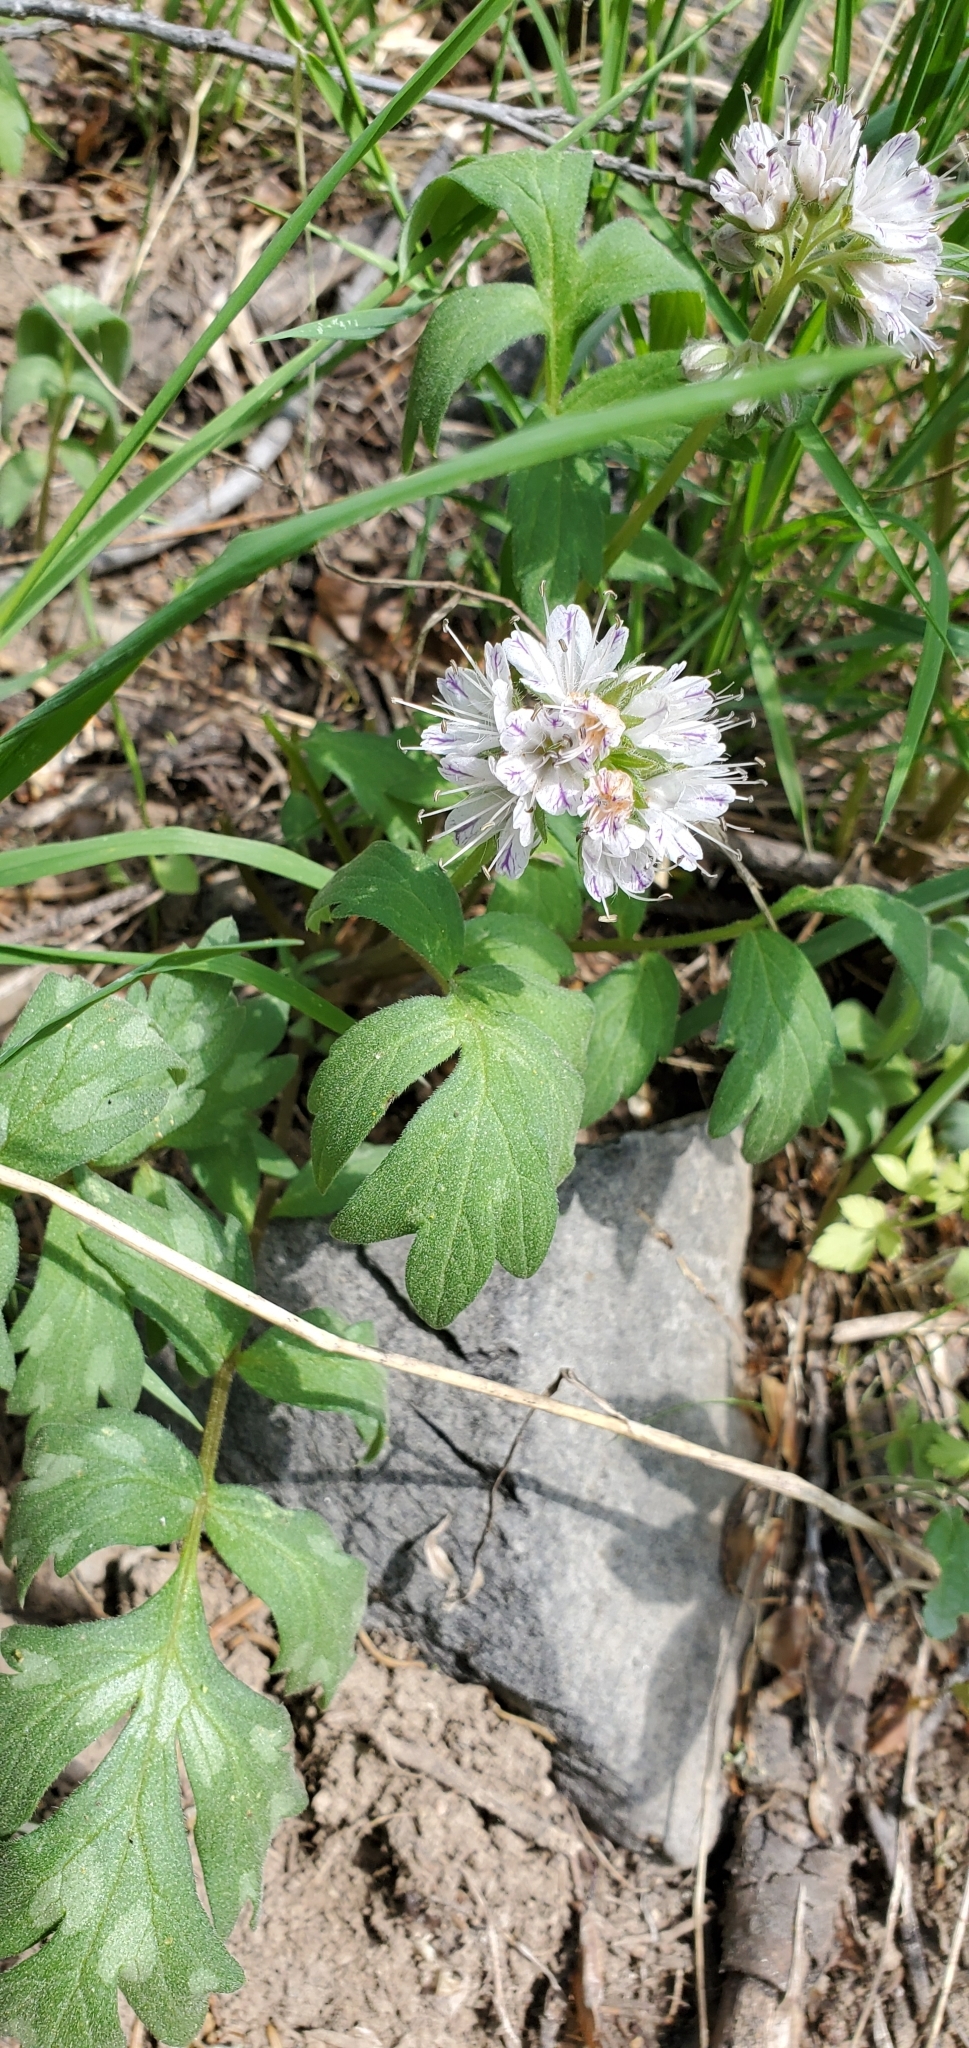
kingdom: Plantae
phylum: Tracheophyta
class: Magnoliopsida
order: Boraginales
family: Hydrophyllaceae
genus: Hydrophyllum
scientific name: Hydrophyllum occidentale
